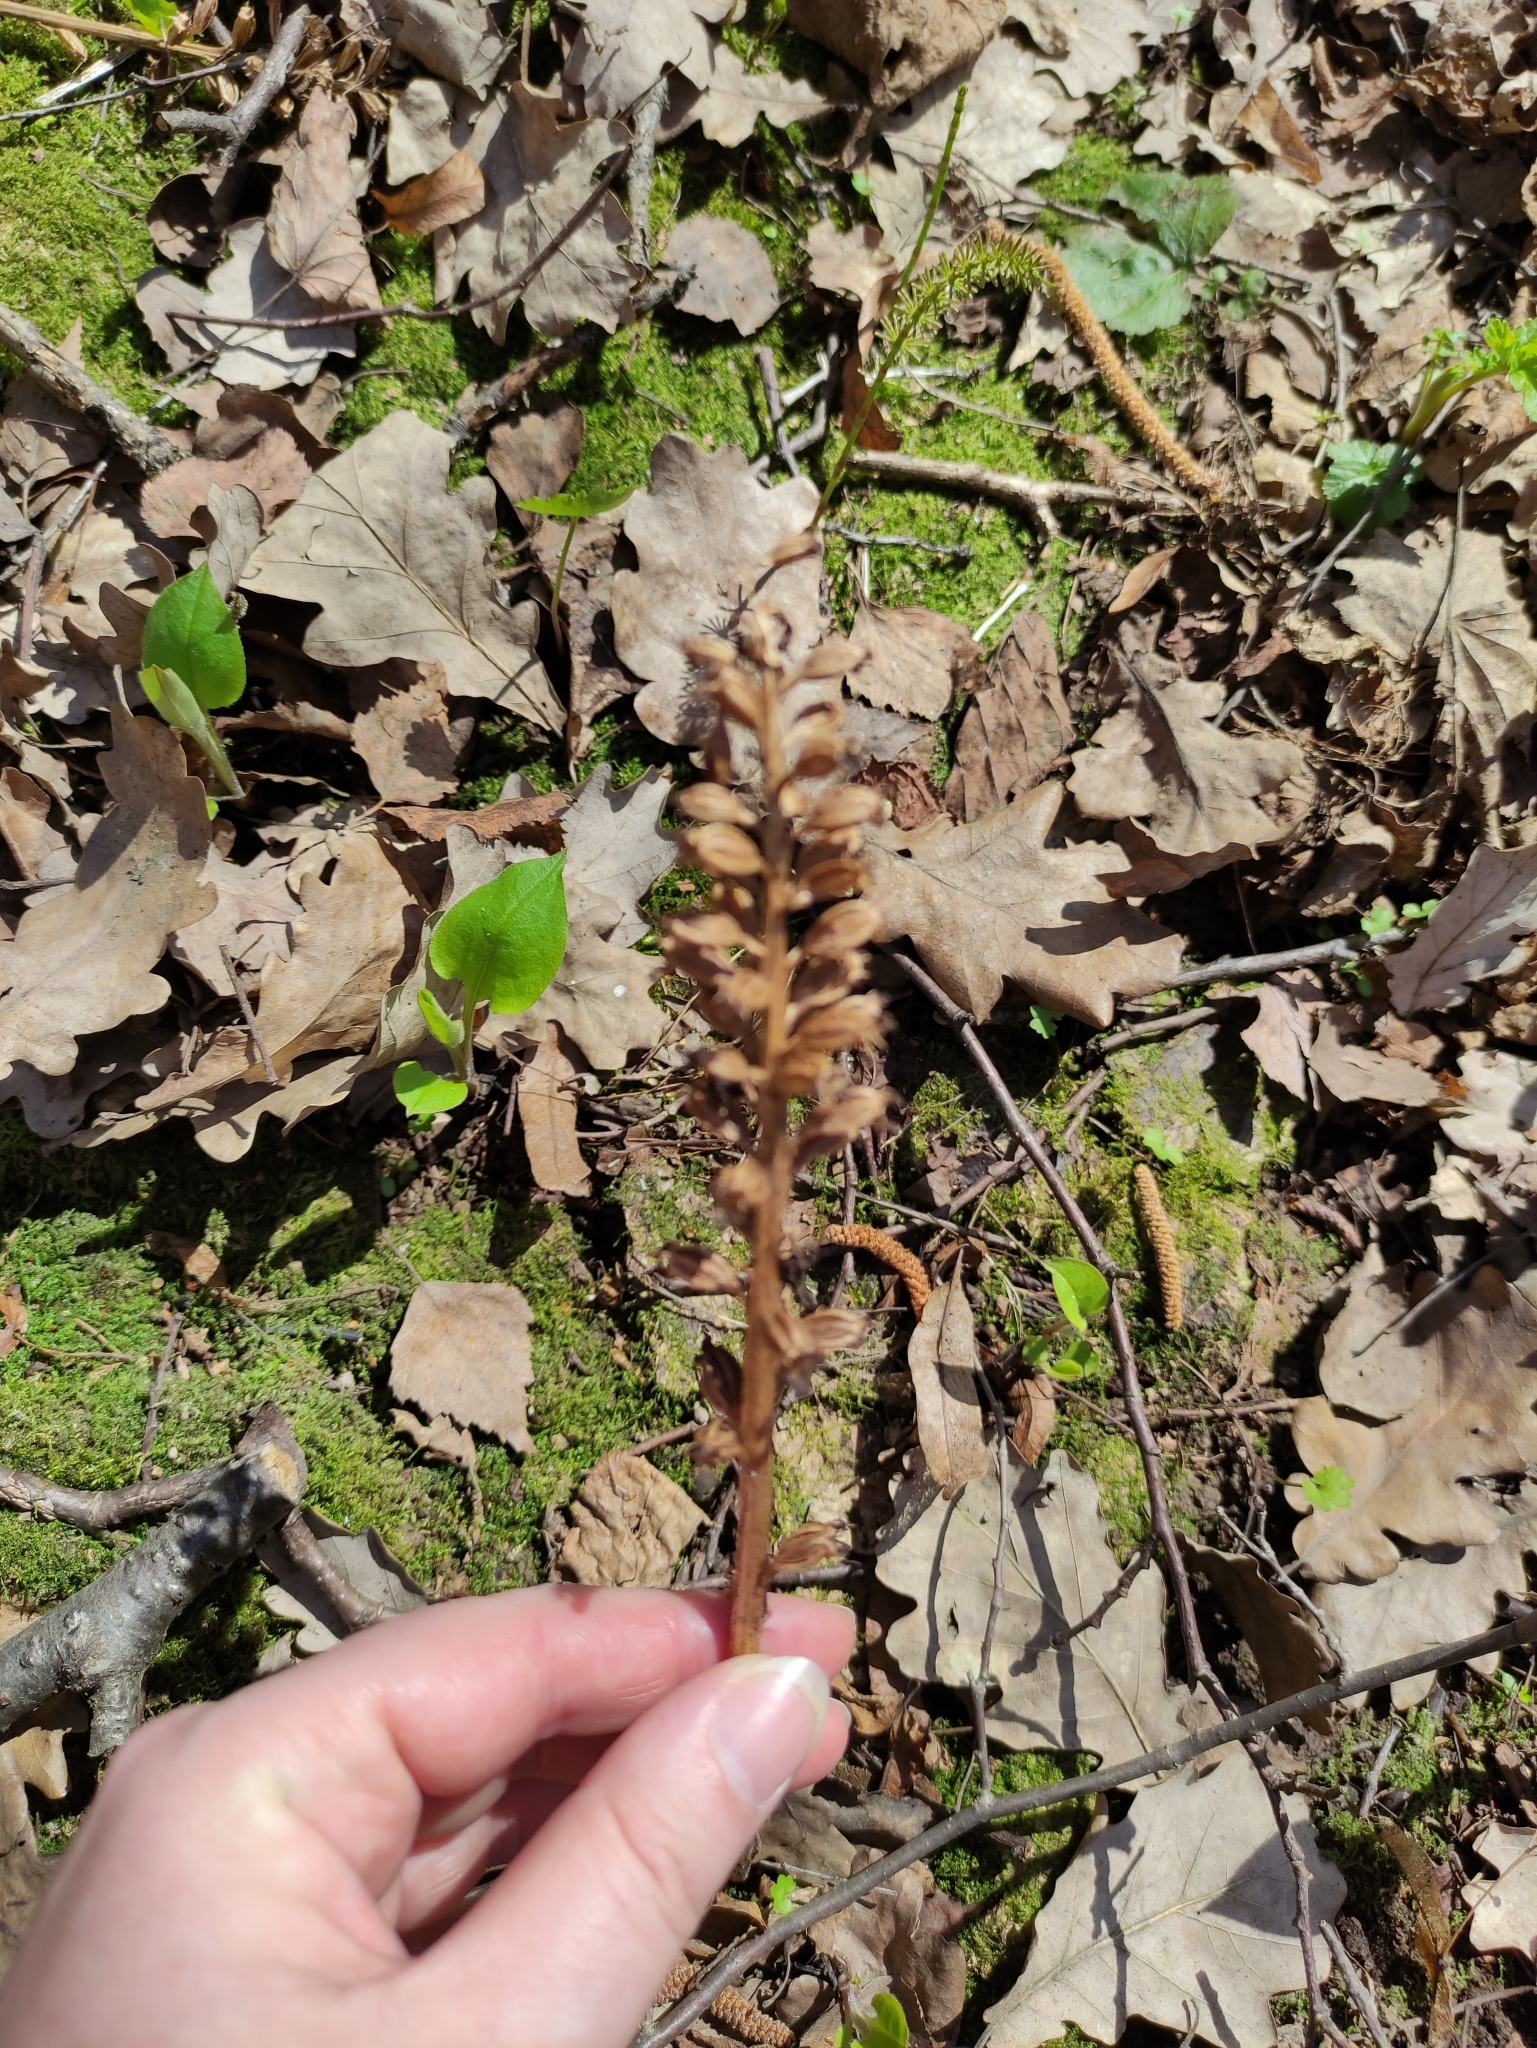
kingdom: Plantae
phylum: Tracheophyta
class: Liliopsida
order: Asparagales
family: Orchidaceae
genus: Neottia
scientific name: Neottia nidus-avis
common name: Bird's-nest orchid
